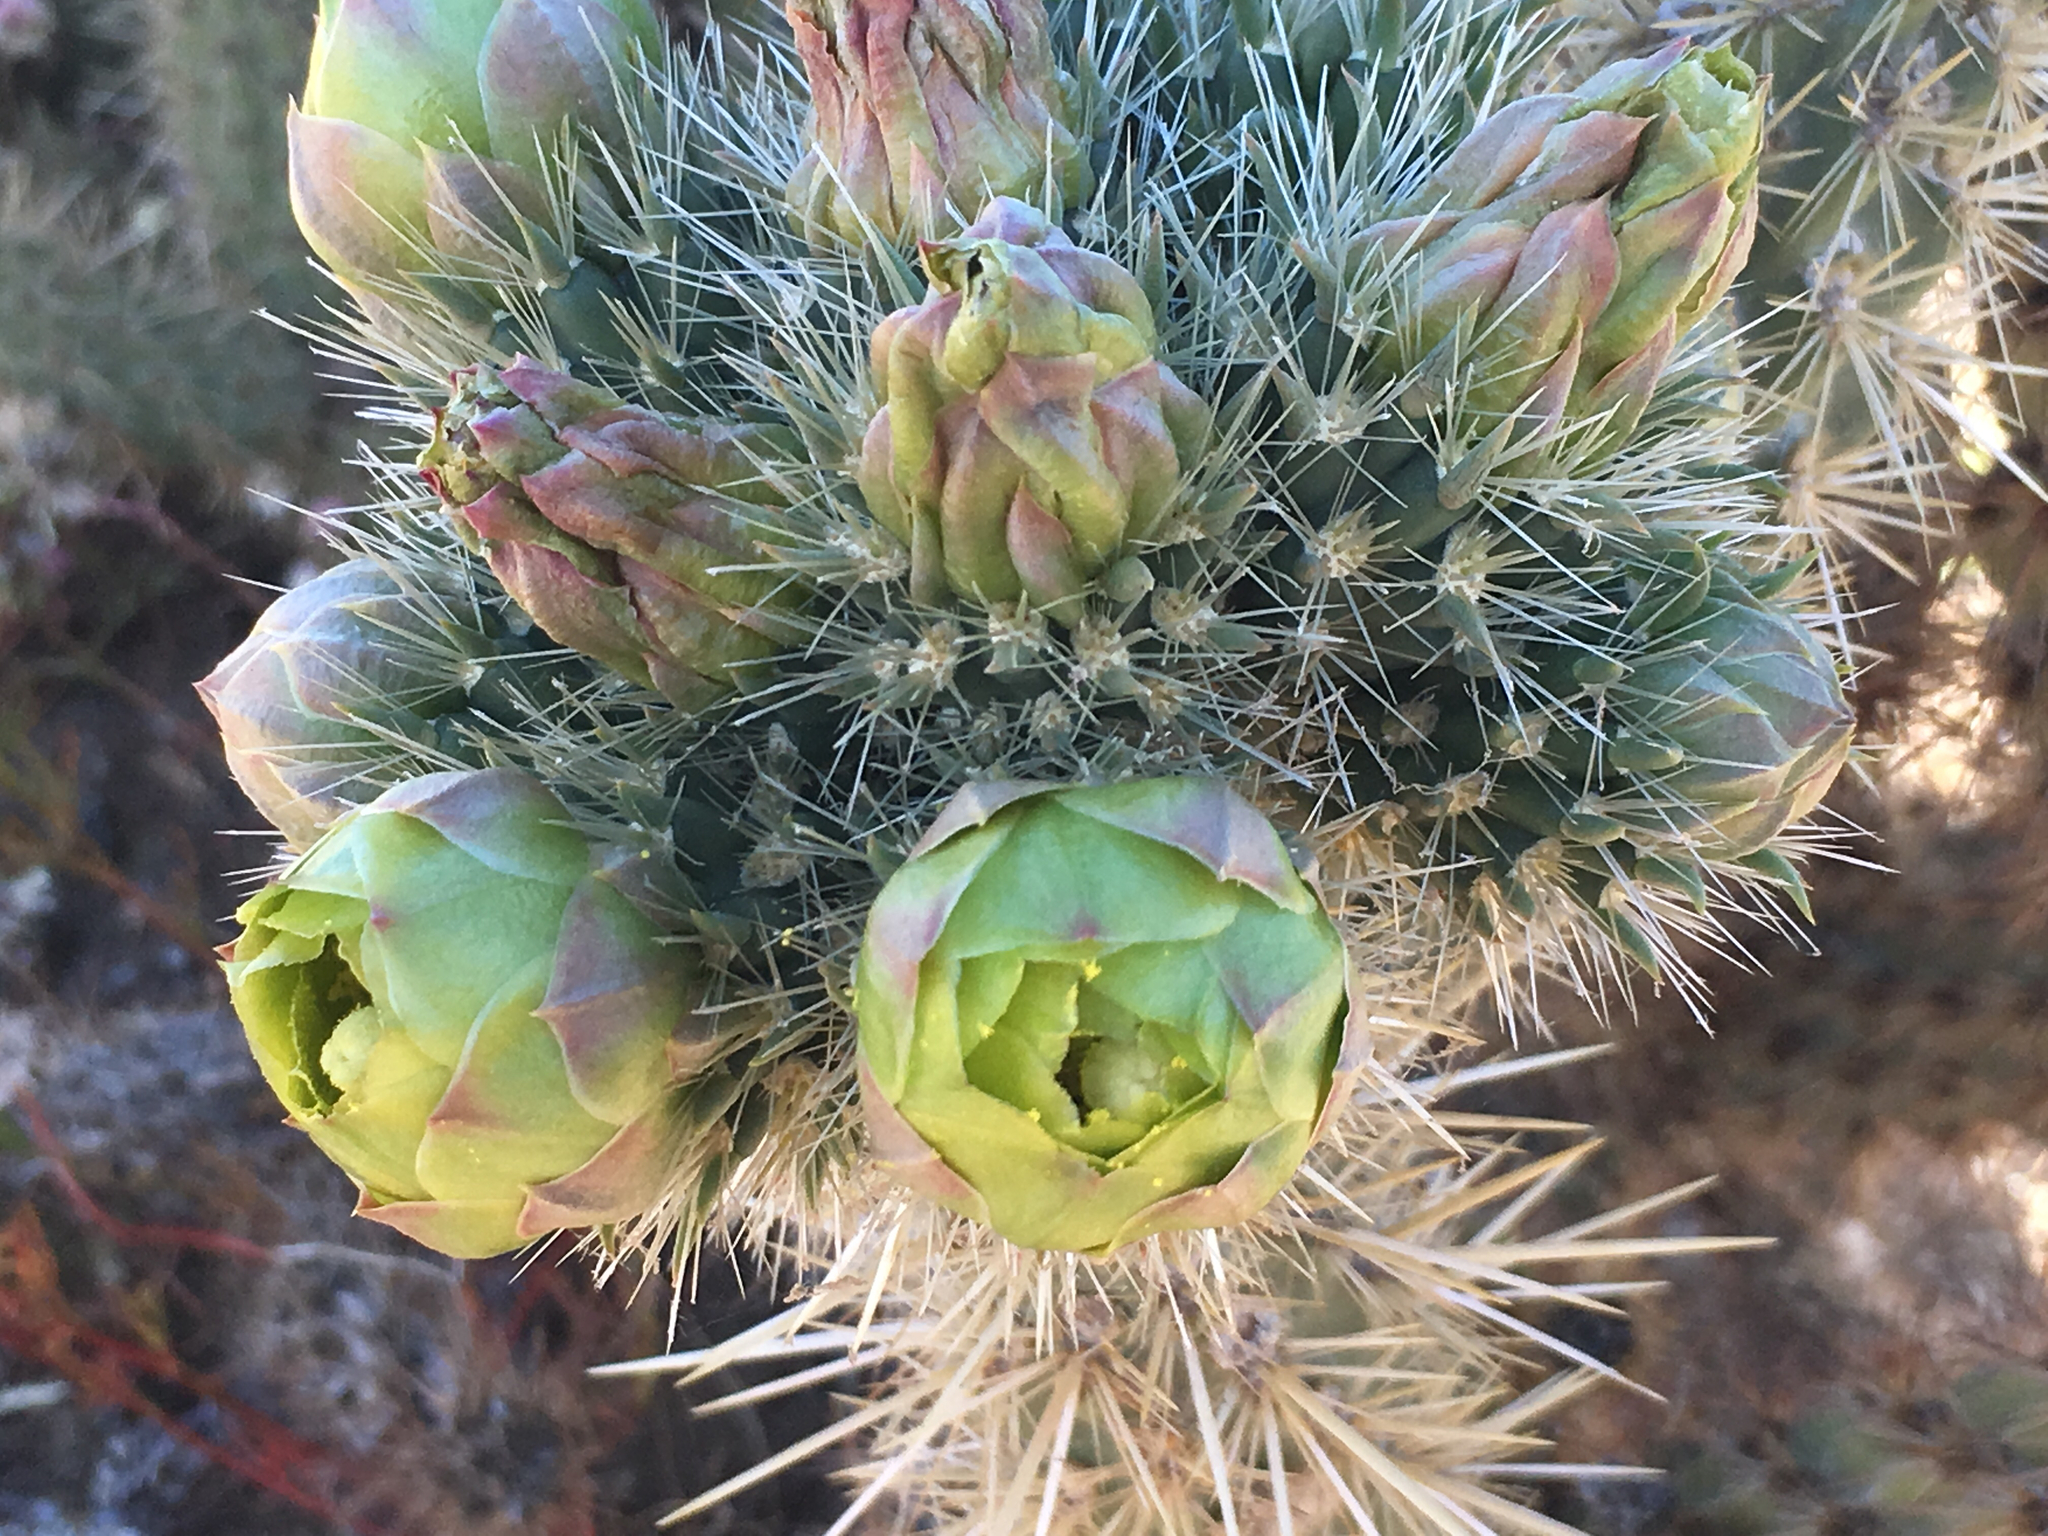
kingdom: Plantae
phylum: Tracheophyta
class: Magnoliopsida
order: Caryophyllales
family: Cactaceae
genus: Cylindropuntia
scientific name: Cylindropuntia ganderi
